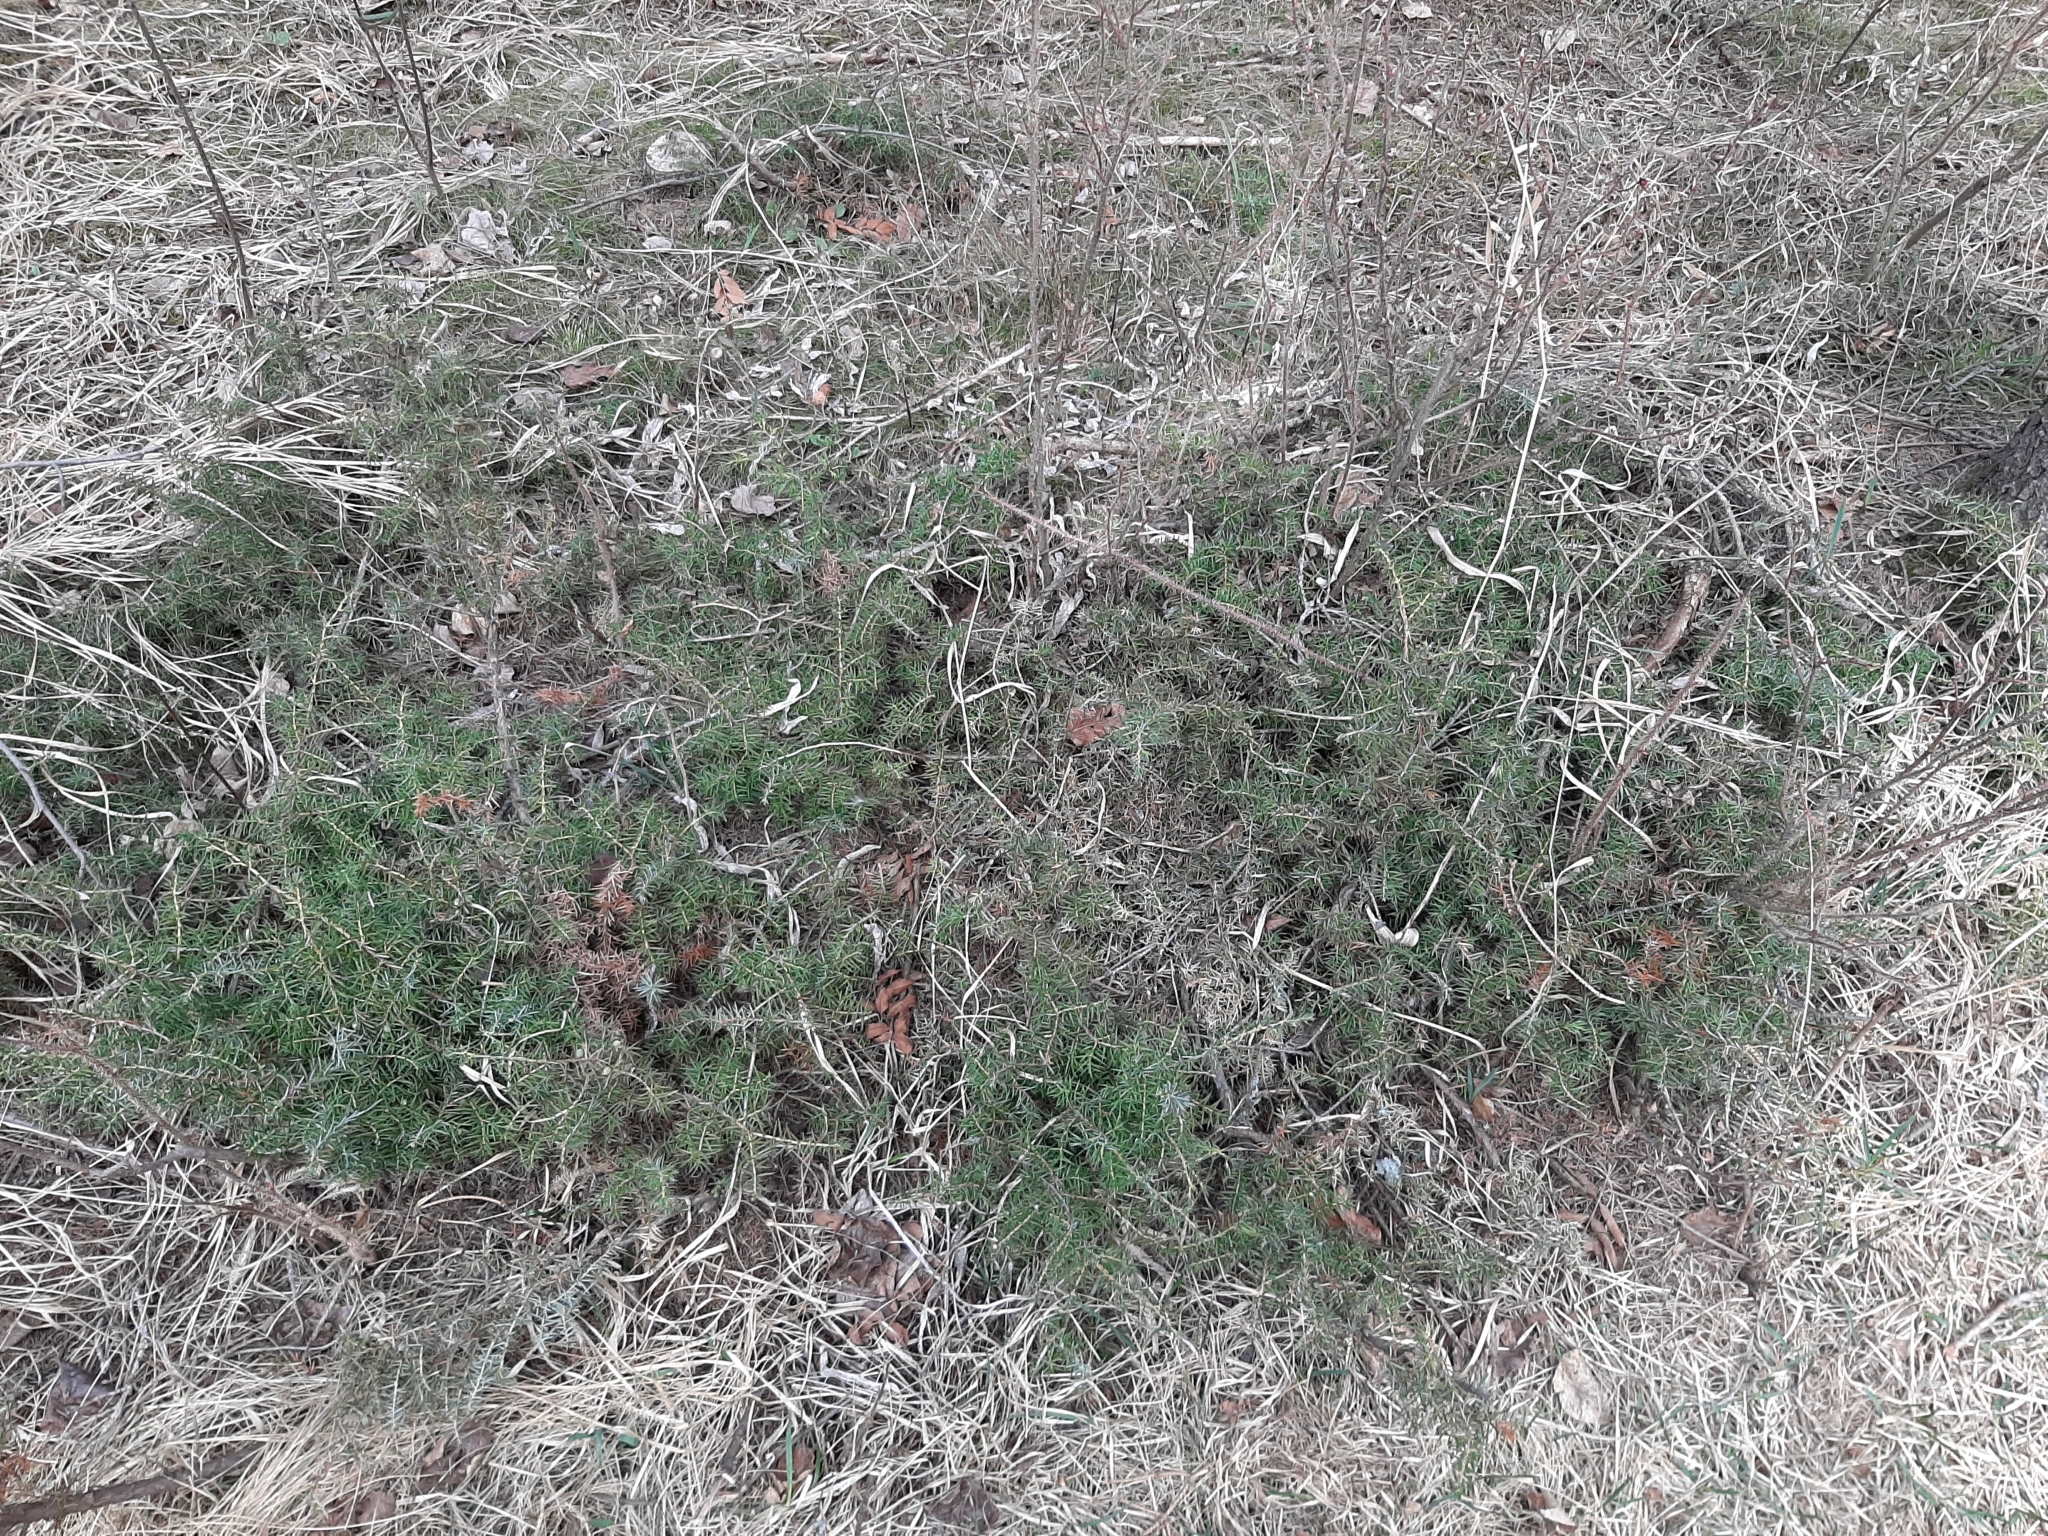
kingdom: Plantae
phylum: Tracheophyta
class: Pinopsida
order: Pinales
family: Cupressaceae
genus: Juniperus
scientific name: Juniperus communis
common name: Common juniper
